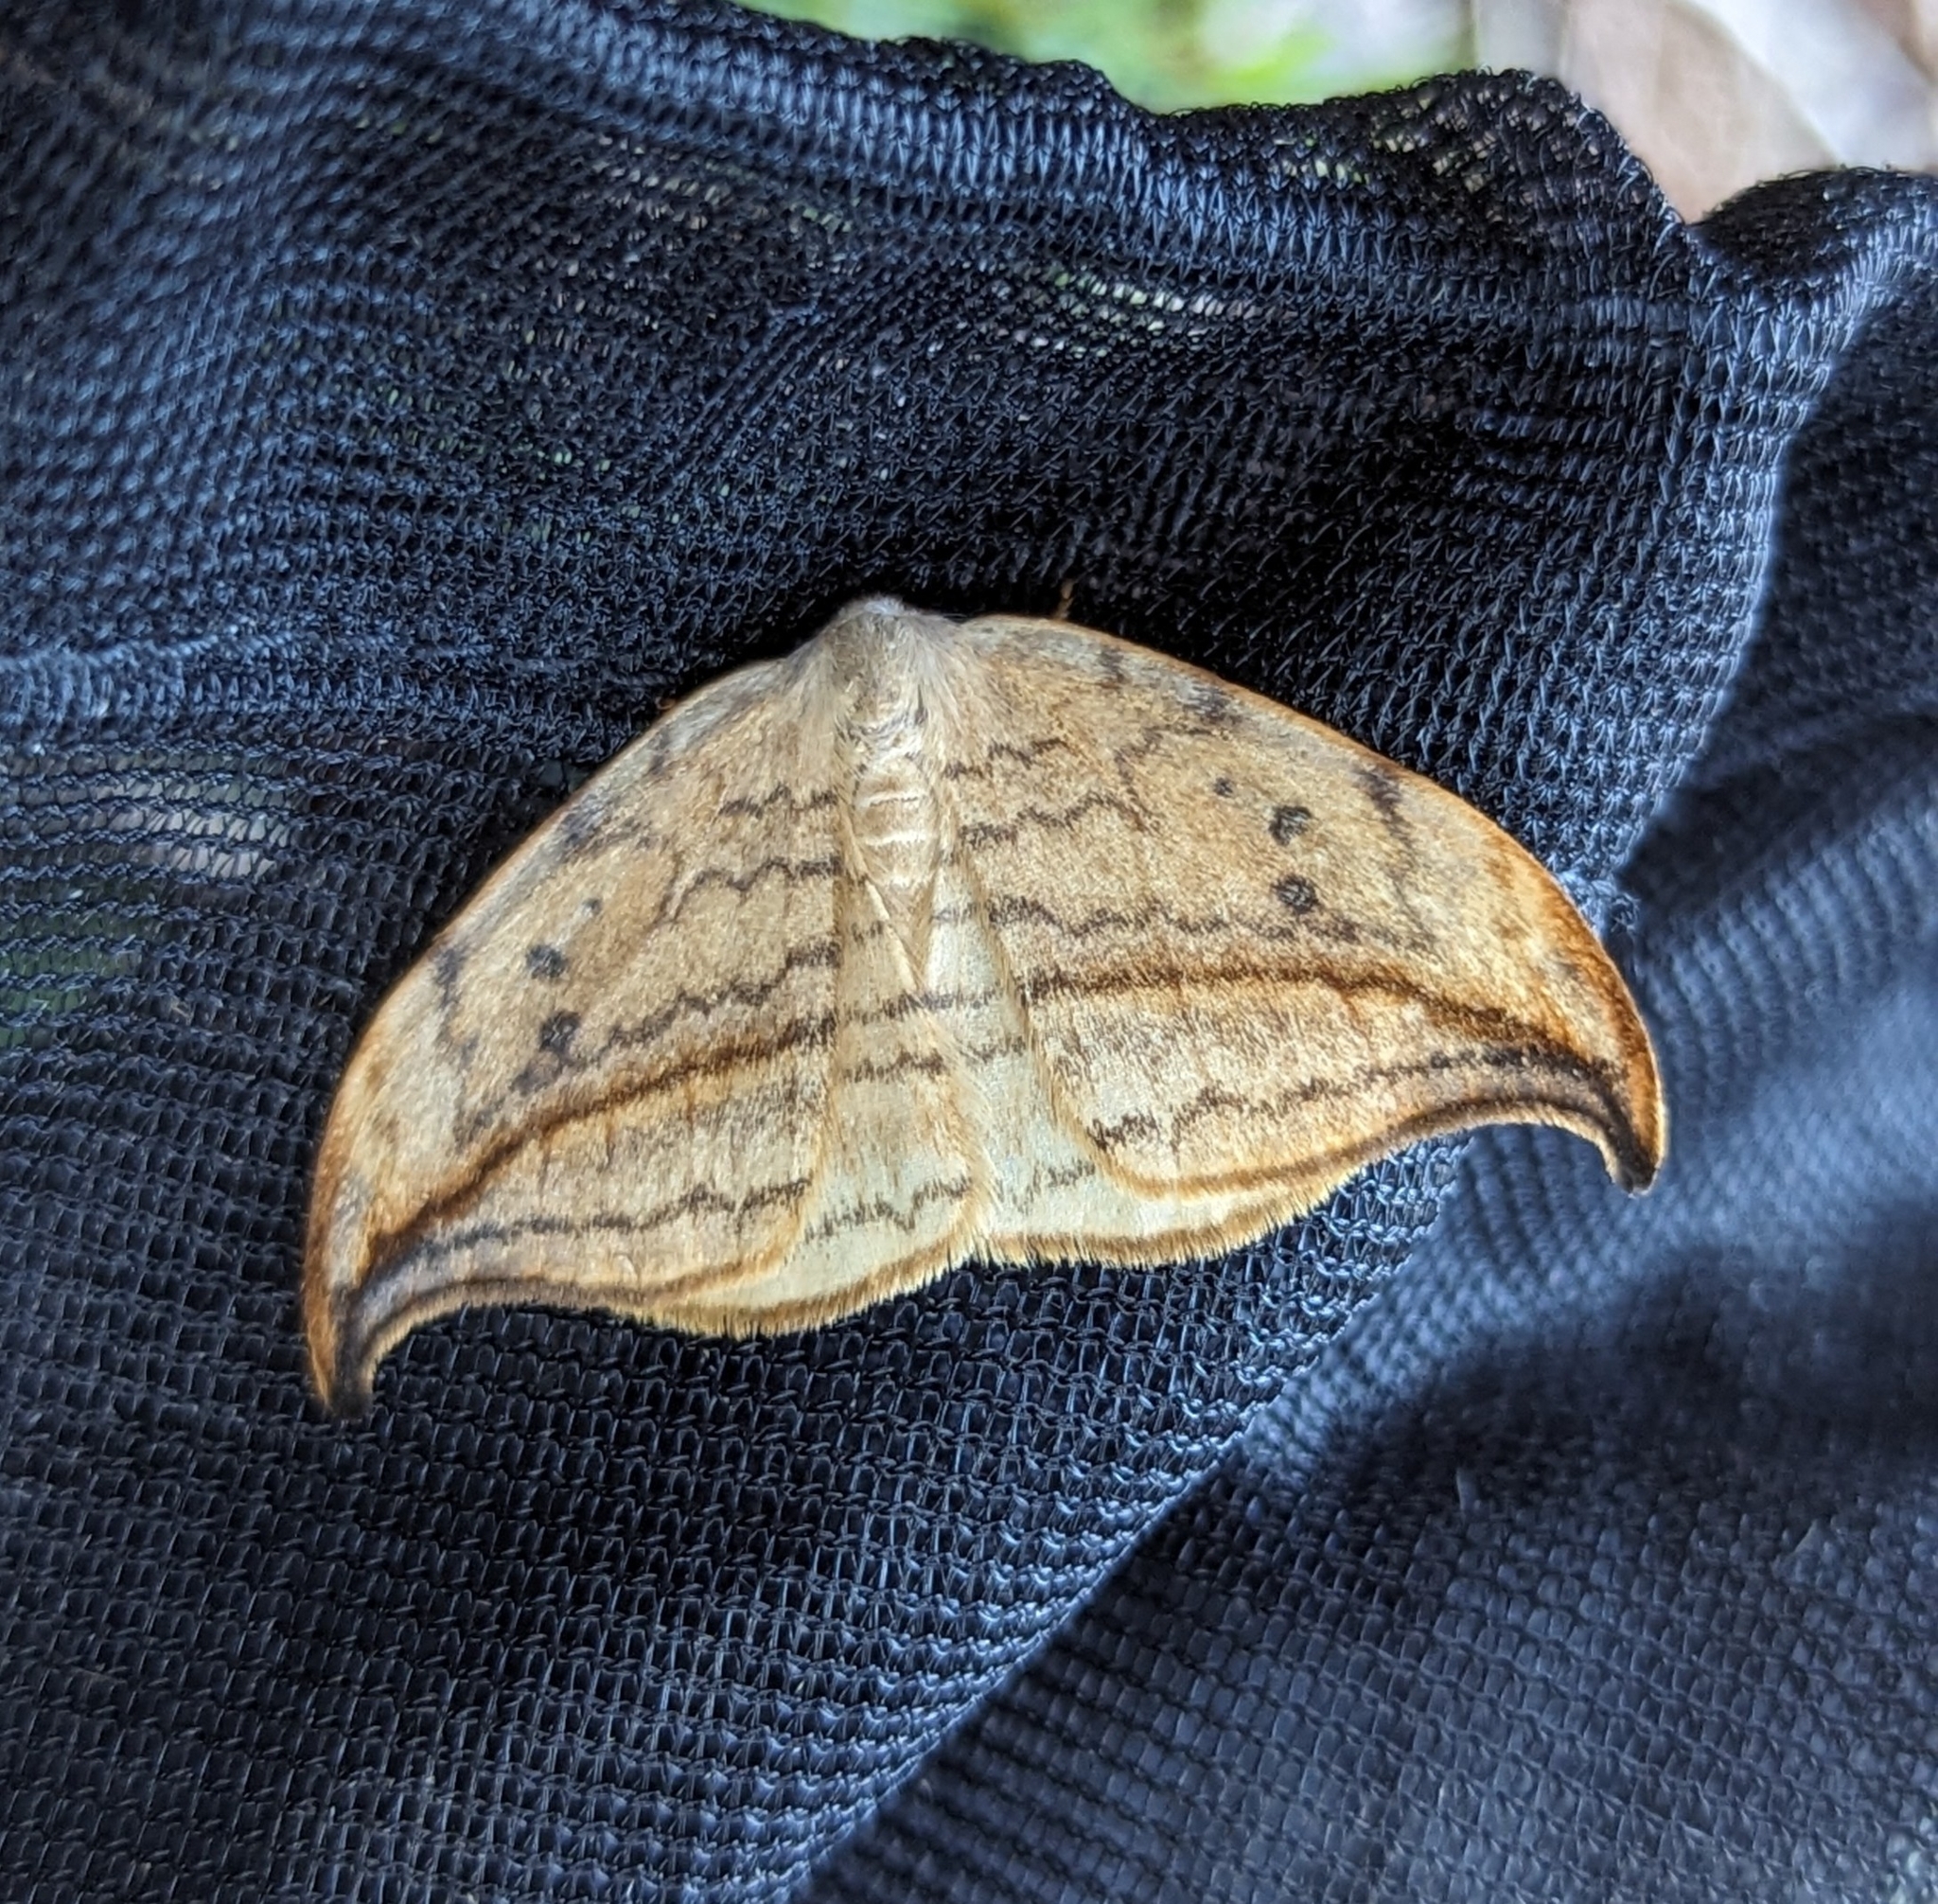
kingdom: Animalia
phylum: Arthropoda
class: Insecta
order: Lepidoptera
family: Drepanidae
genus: Drepana
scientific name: Drepana arcuata
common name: Arched hooktip moth
